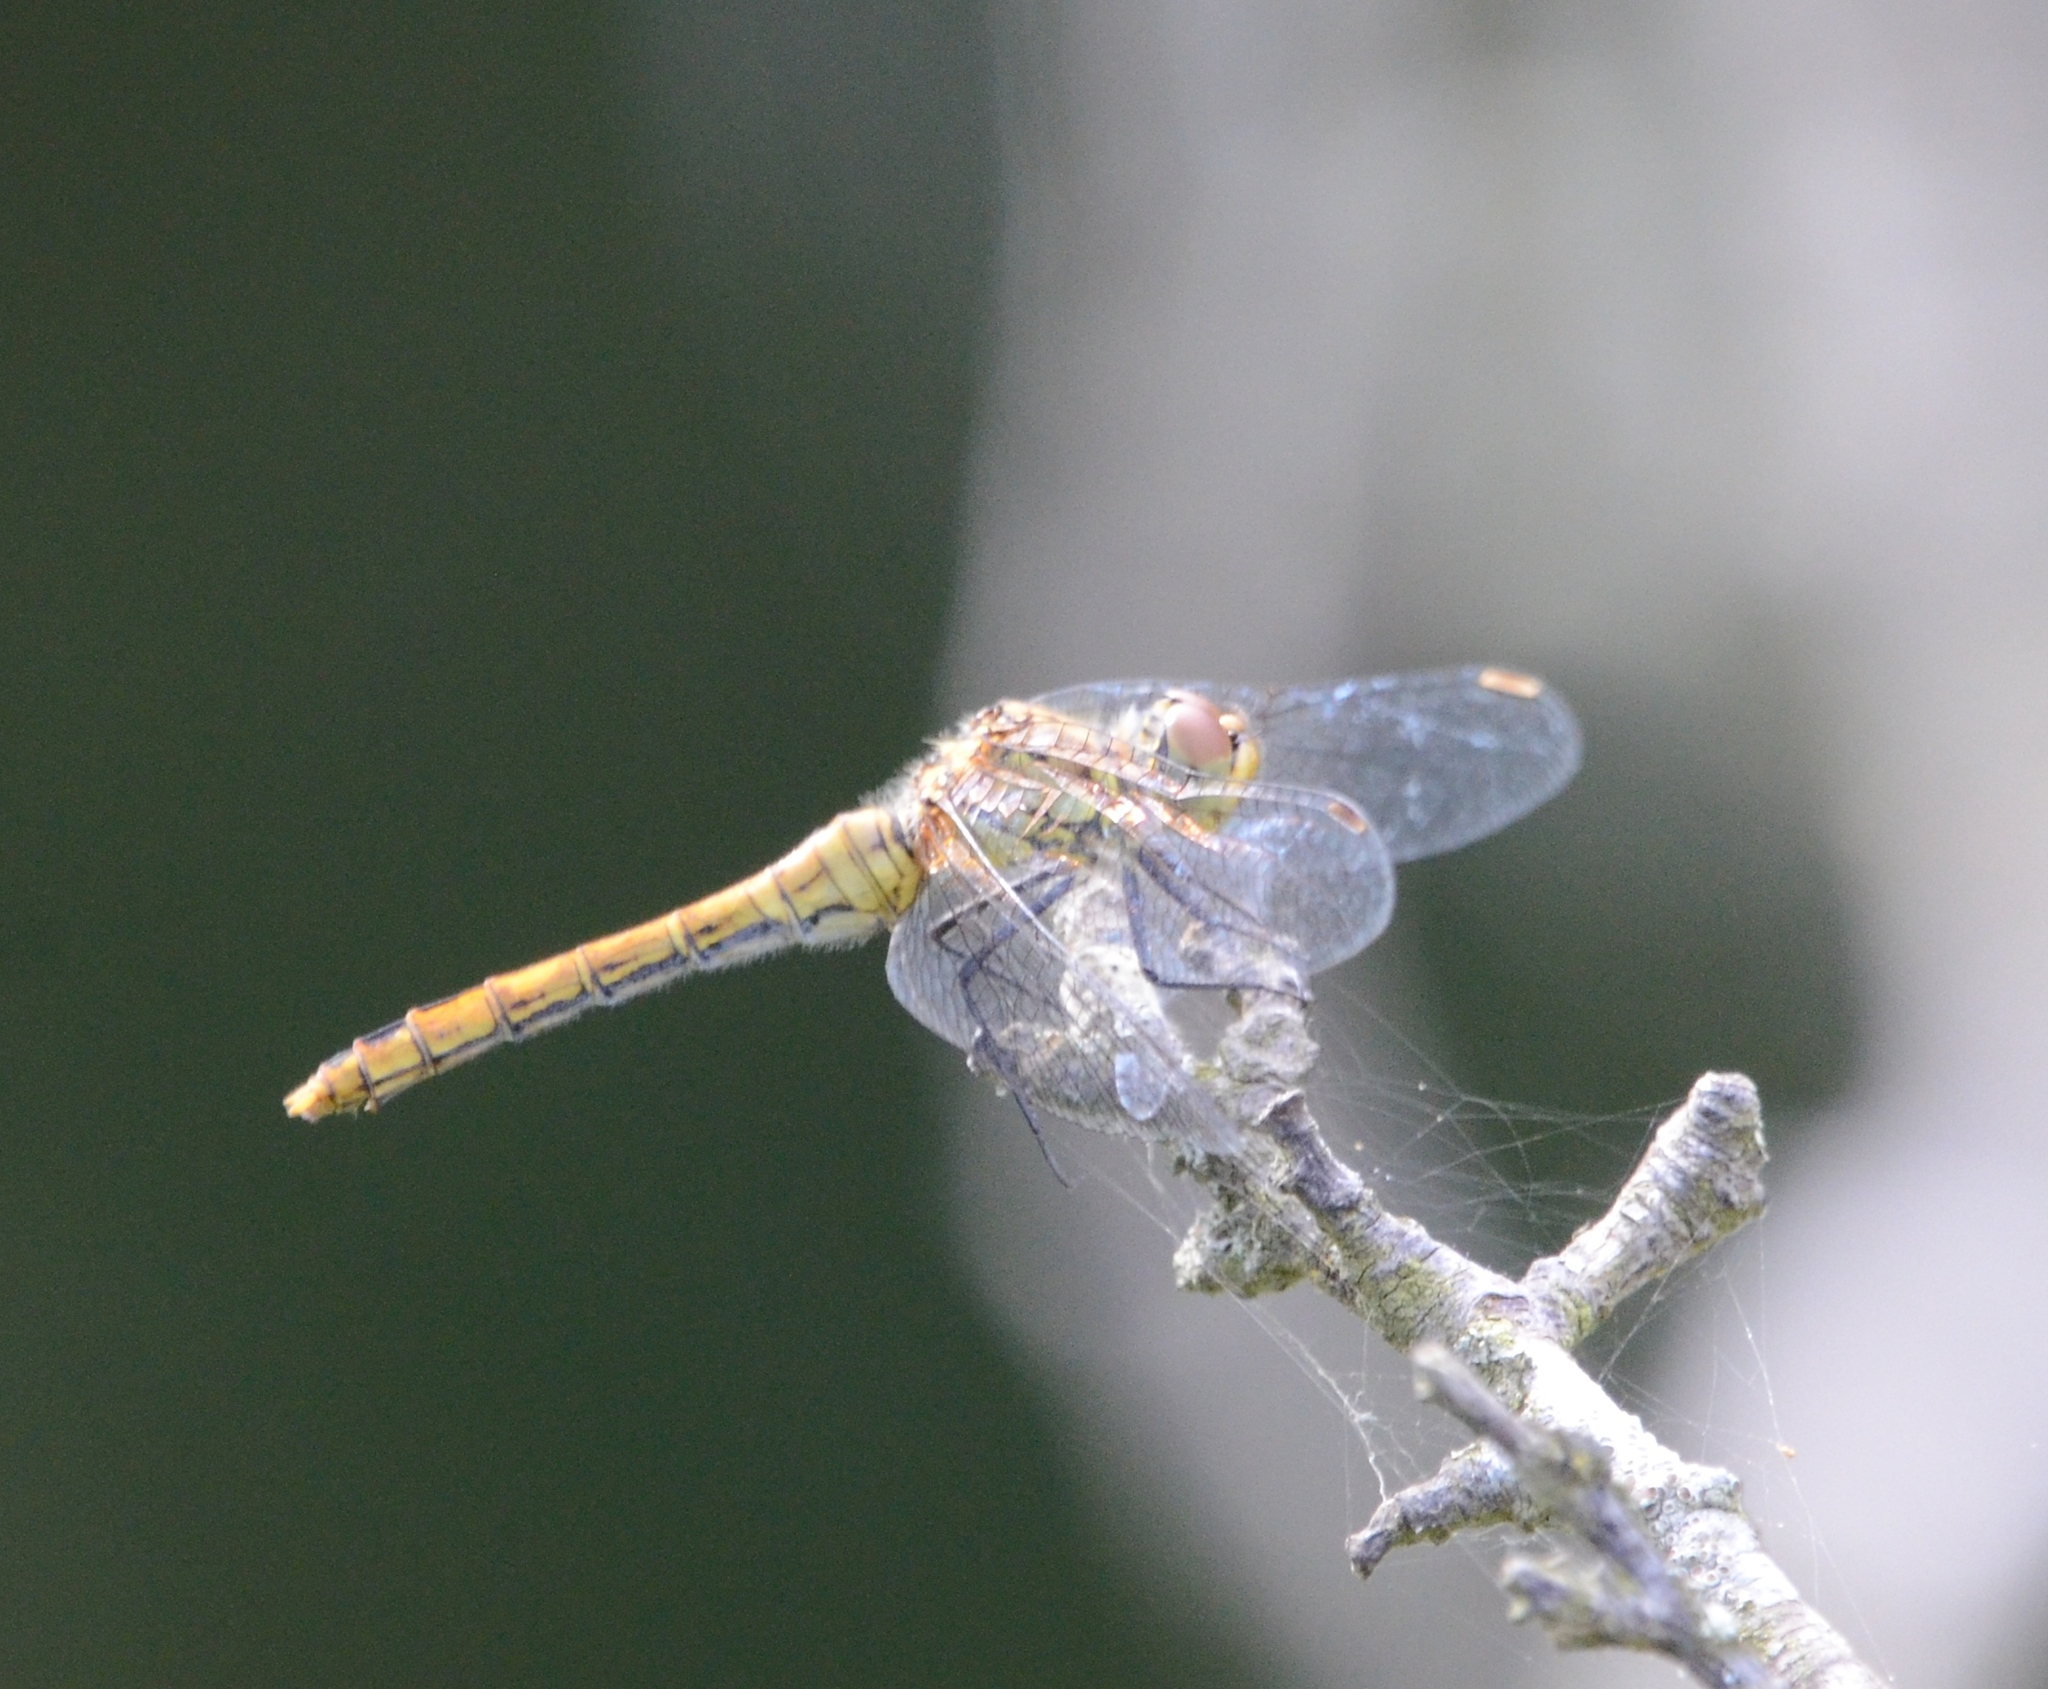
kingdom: Animalia
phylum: Arthropoda
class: Insecta
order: Odonata
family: Libellulidae
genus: Sympetrum
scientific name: Sympetrum sanguineum
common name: Ruddy darter
